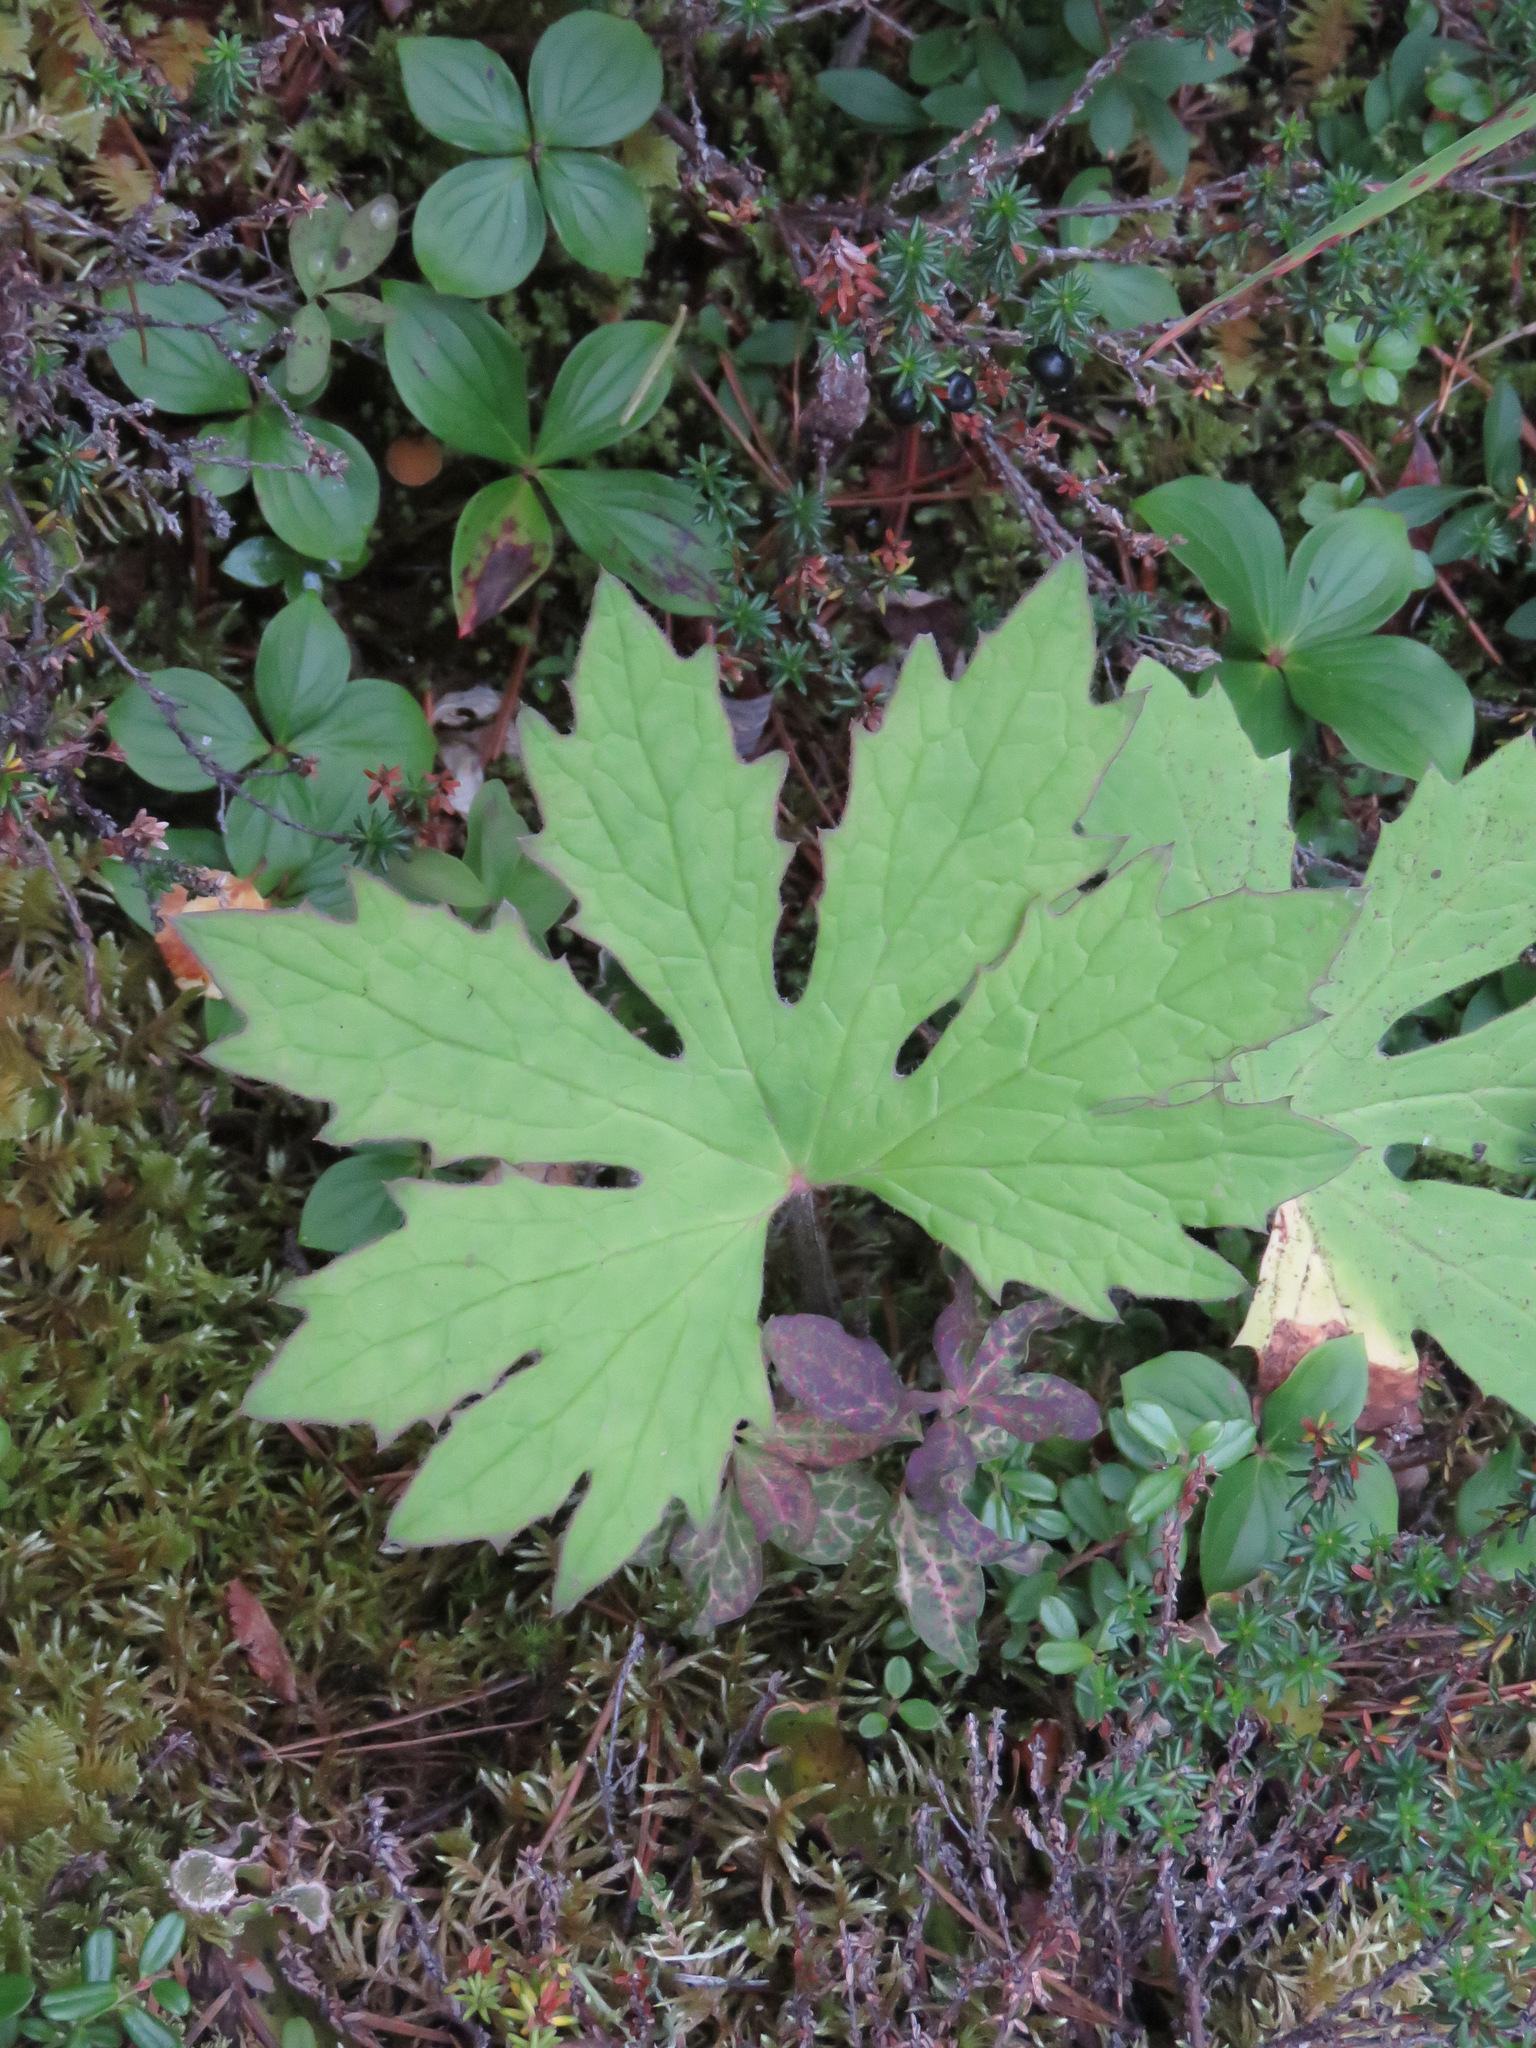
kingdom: Plantae
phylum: Tracheophyta
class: Magnoliopsida
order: Asterales
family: Asteraceae
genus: Petasites
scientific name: Petasites frigidus
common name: Arctic butterbur
